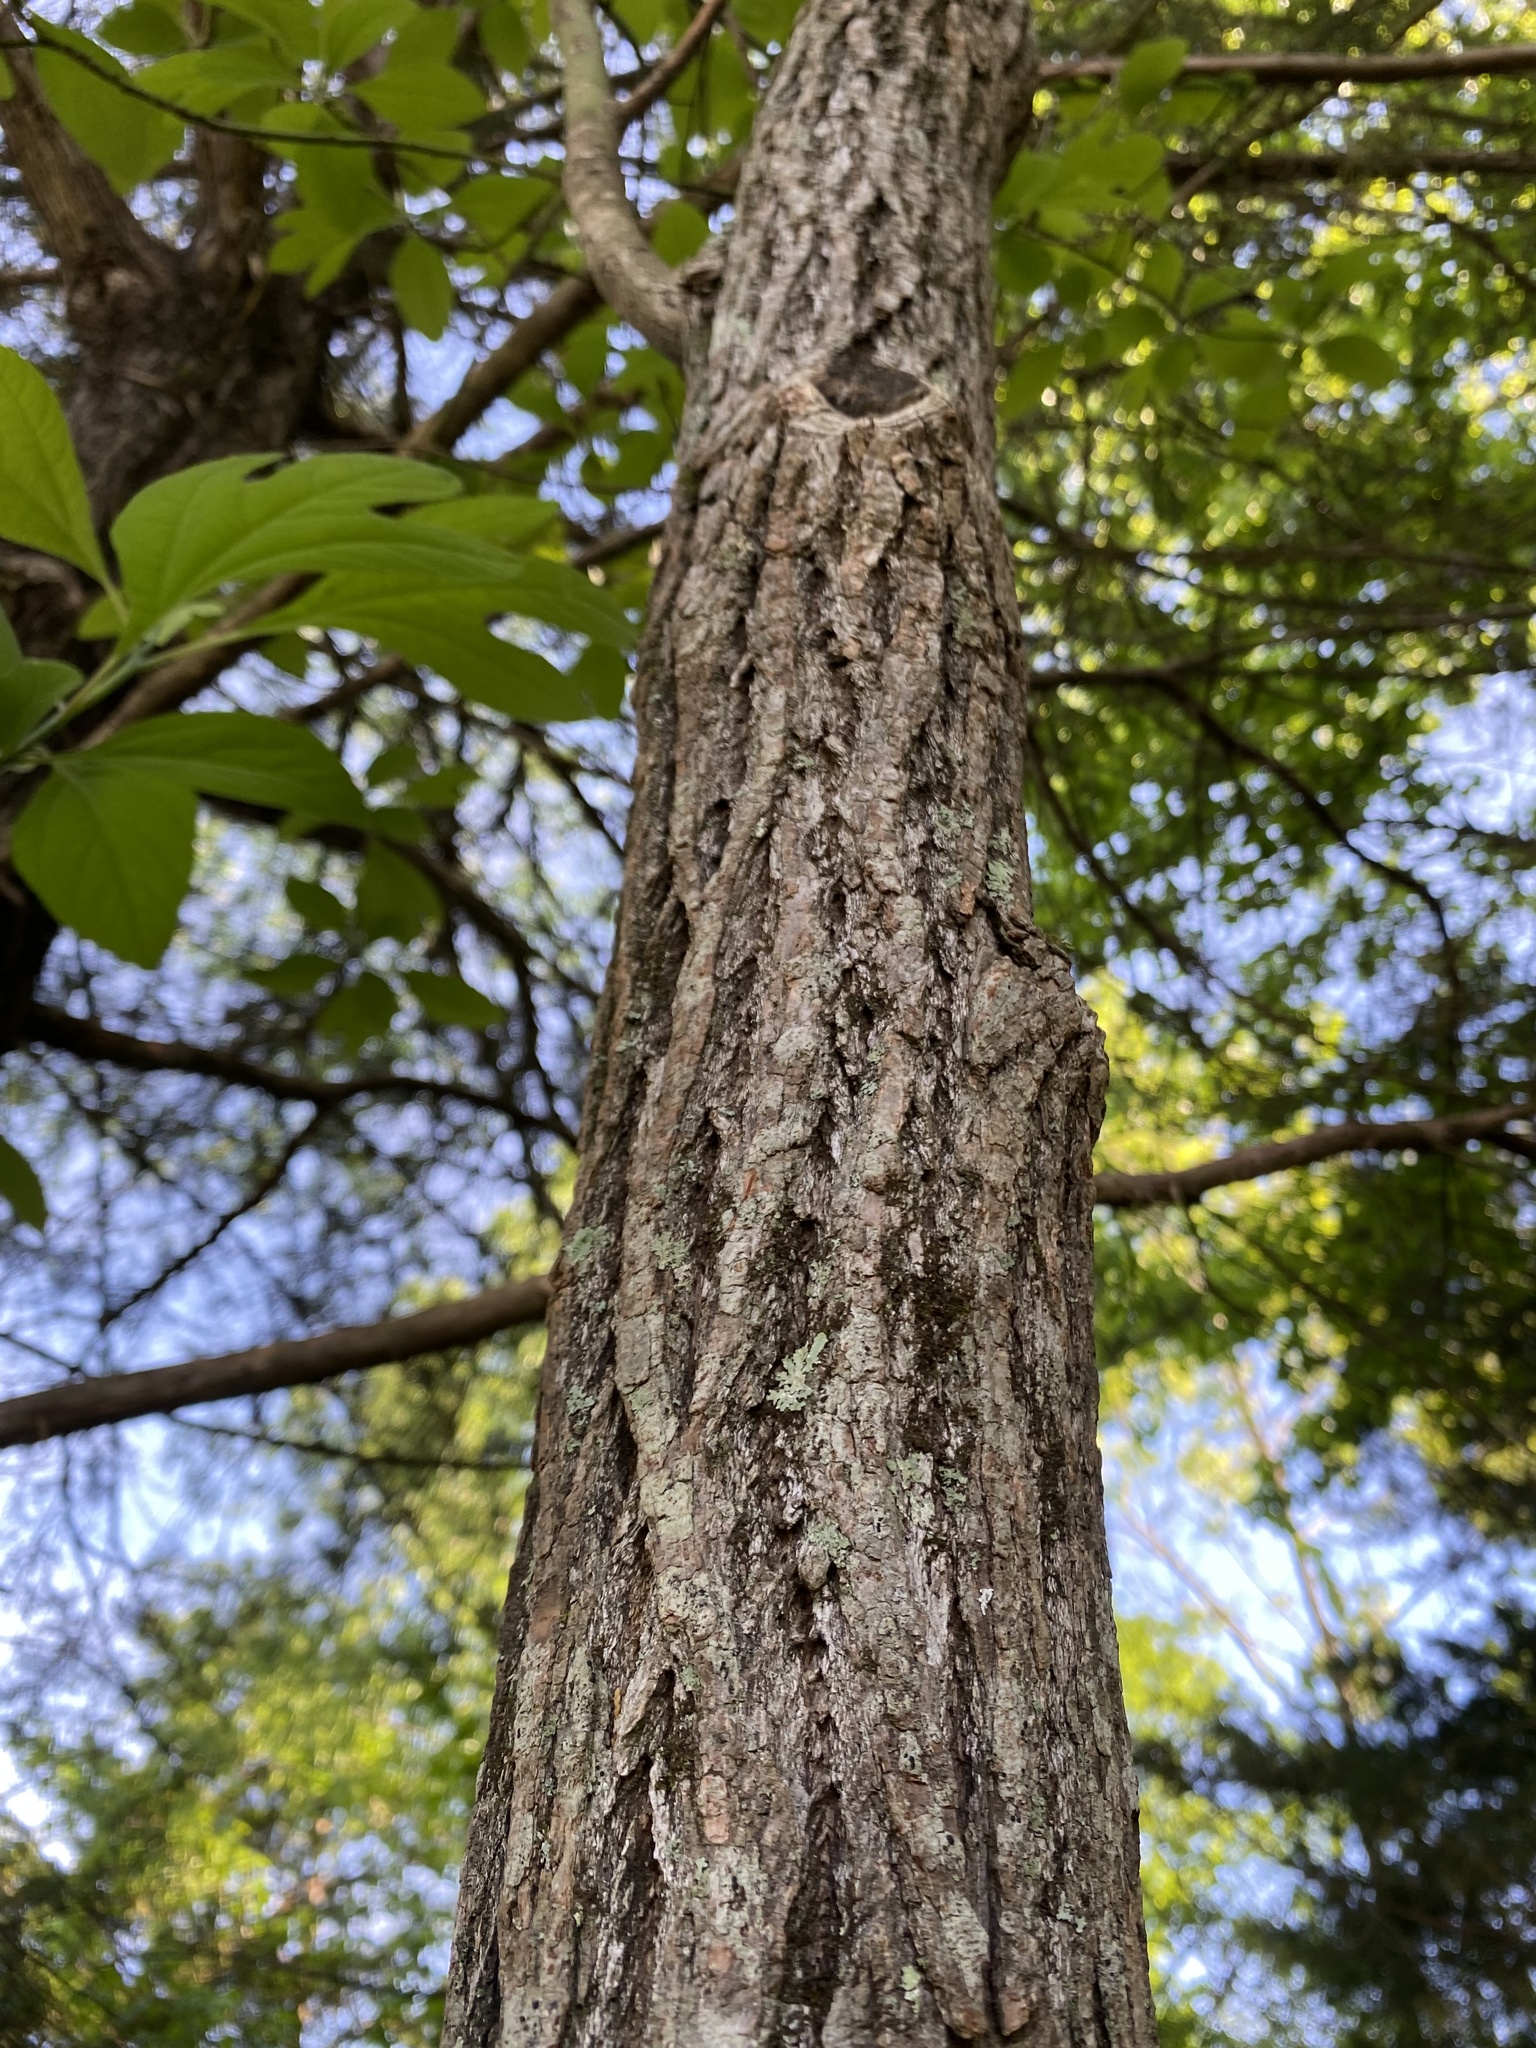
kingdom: Plantae
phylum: Tracheophyta
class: Magnoliopsida
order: Laurales
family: Lauraceae
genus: Sassafras
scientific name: Sassafras albidum
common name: Sassafras
